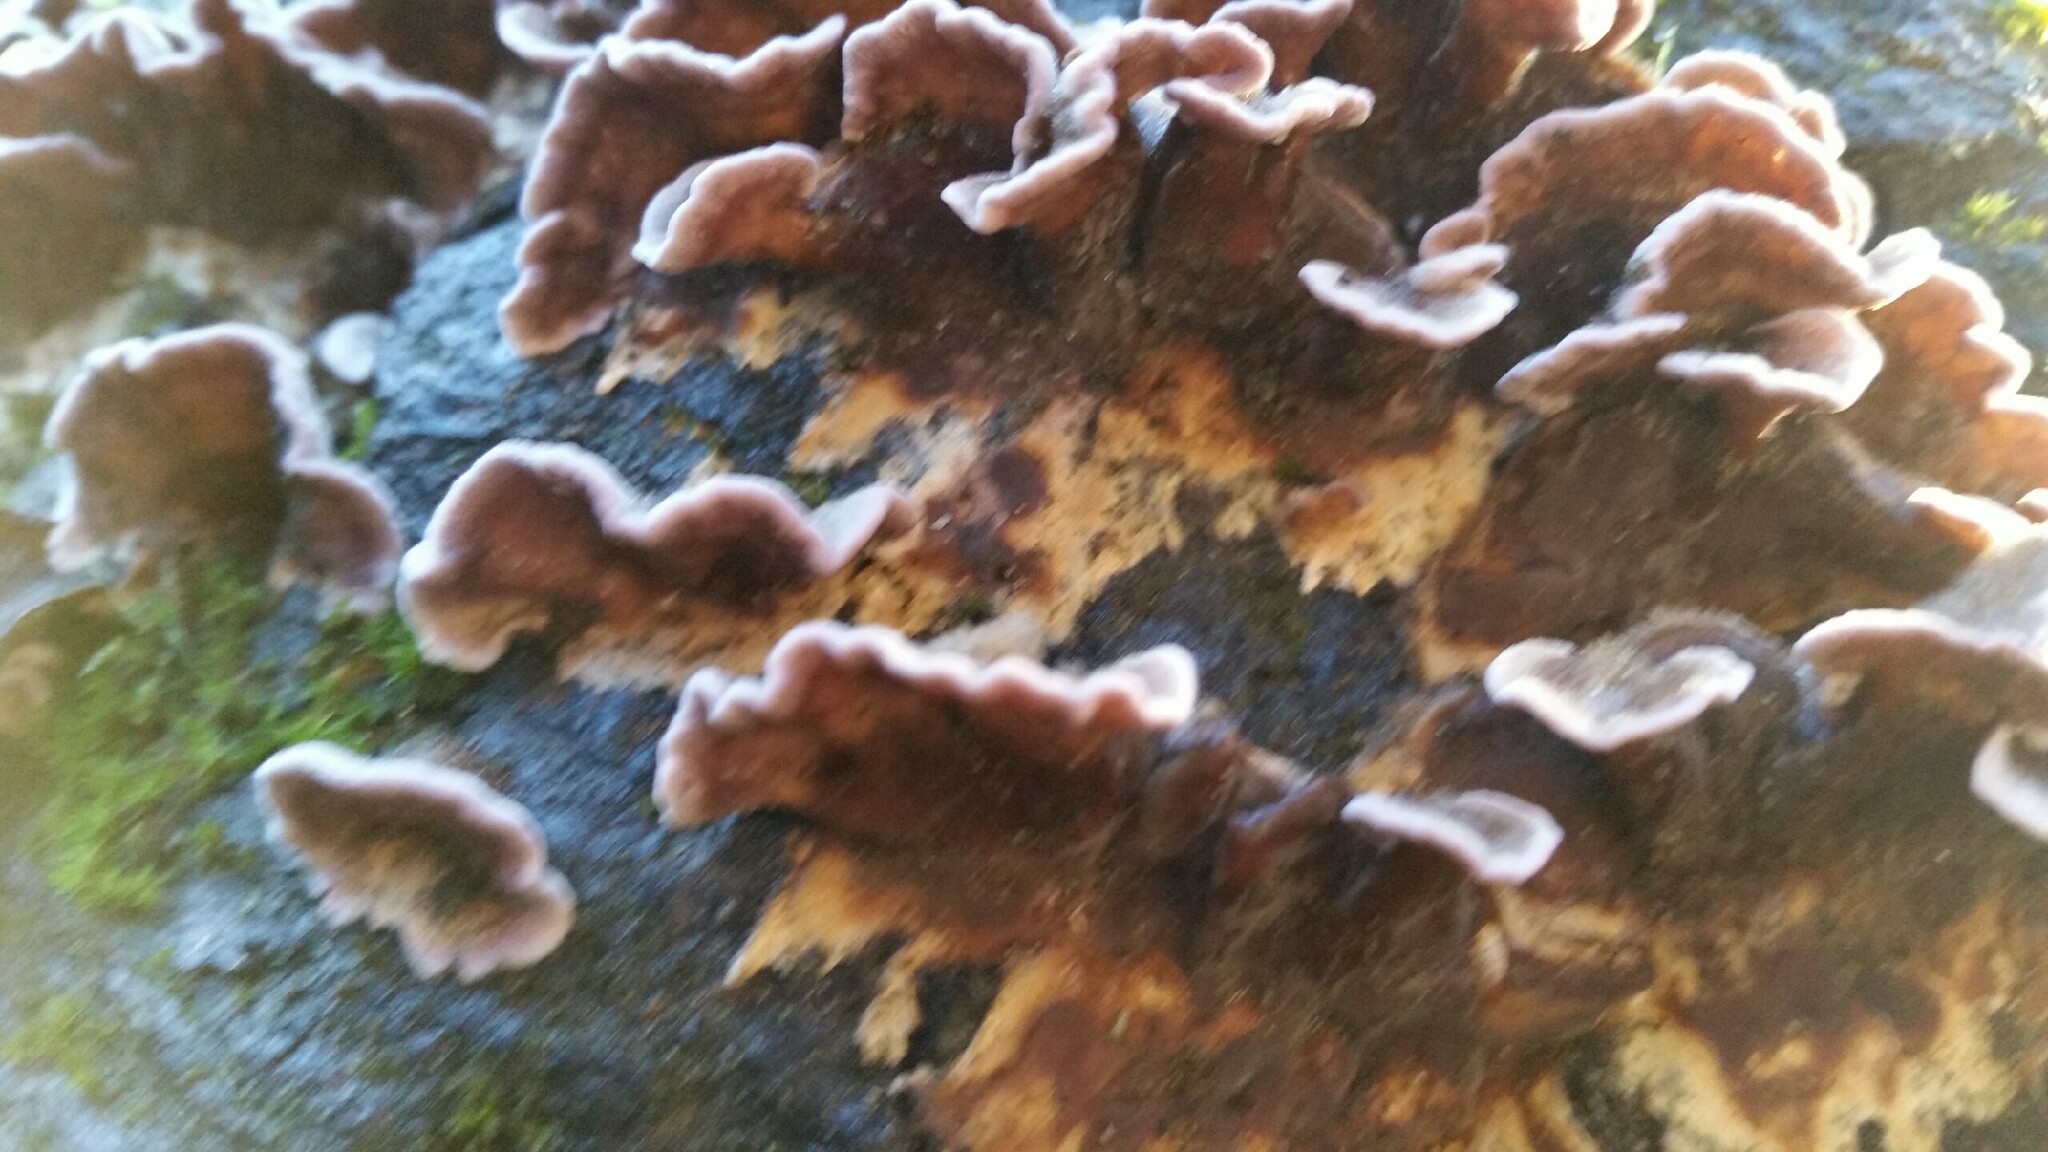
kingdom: Fungi
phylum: Basidiomycota
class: Agaricomycetes
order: Agaricales
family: Cyphellaceae
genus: Chondrostereum
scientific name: Chondrostereum purpureum
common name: Silver leaf disease
